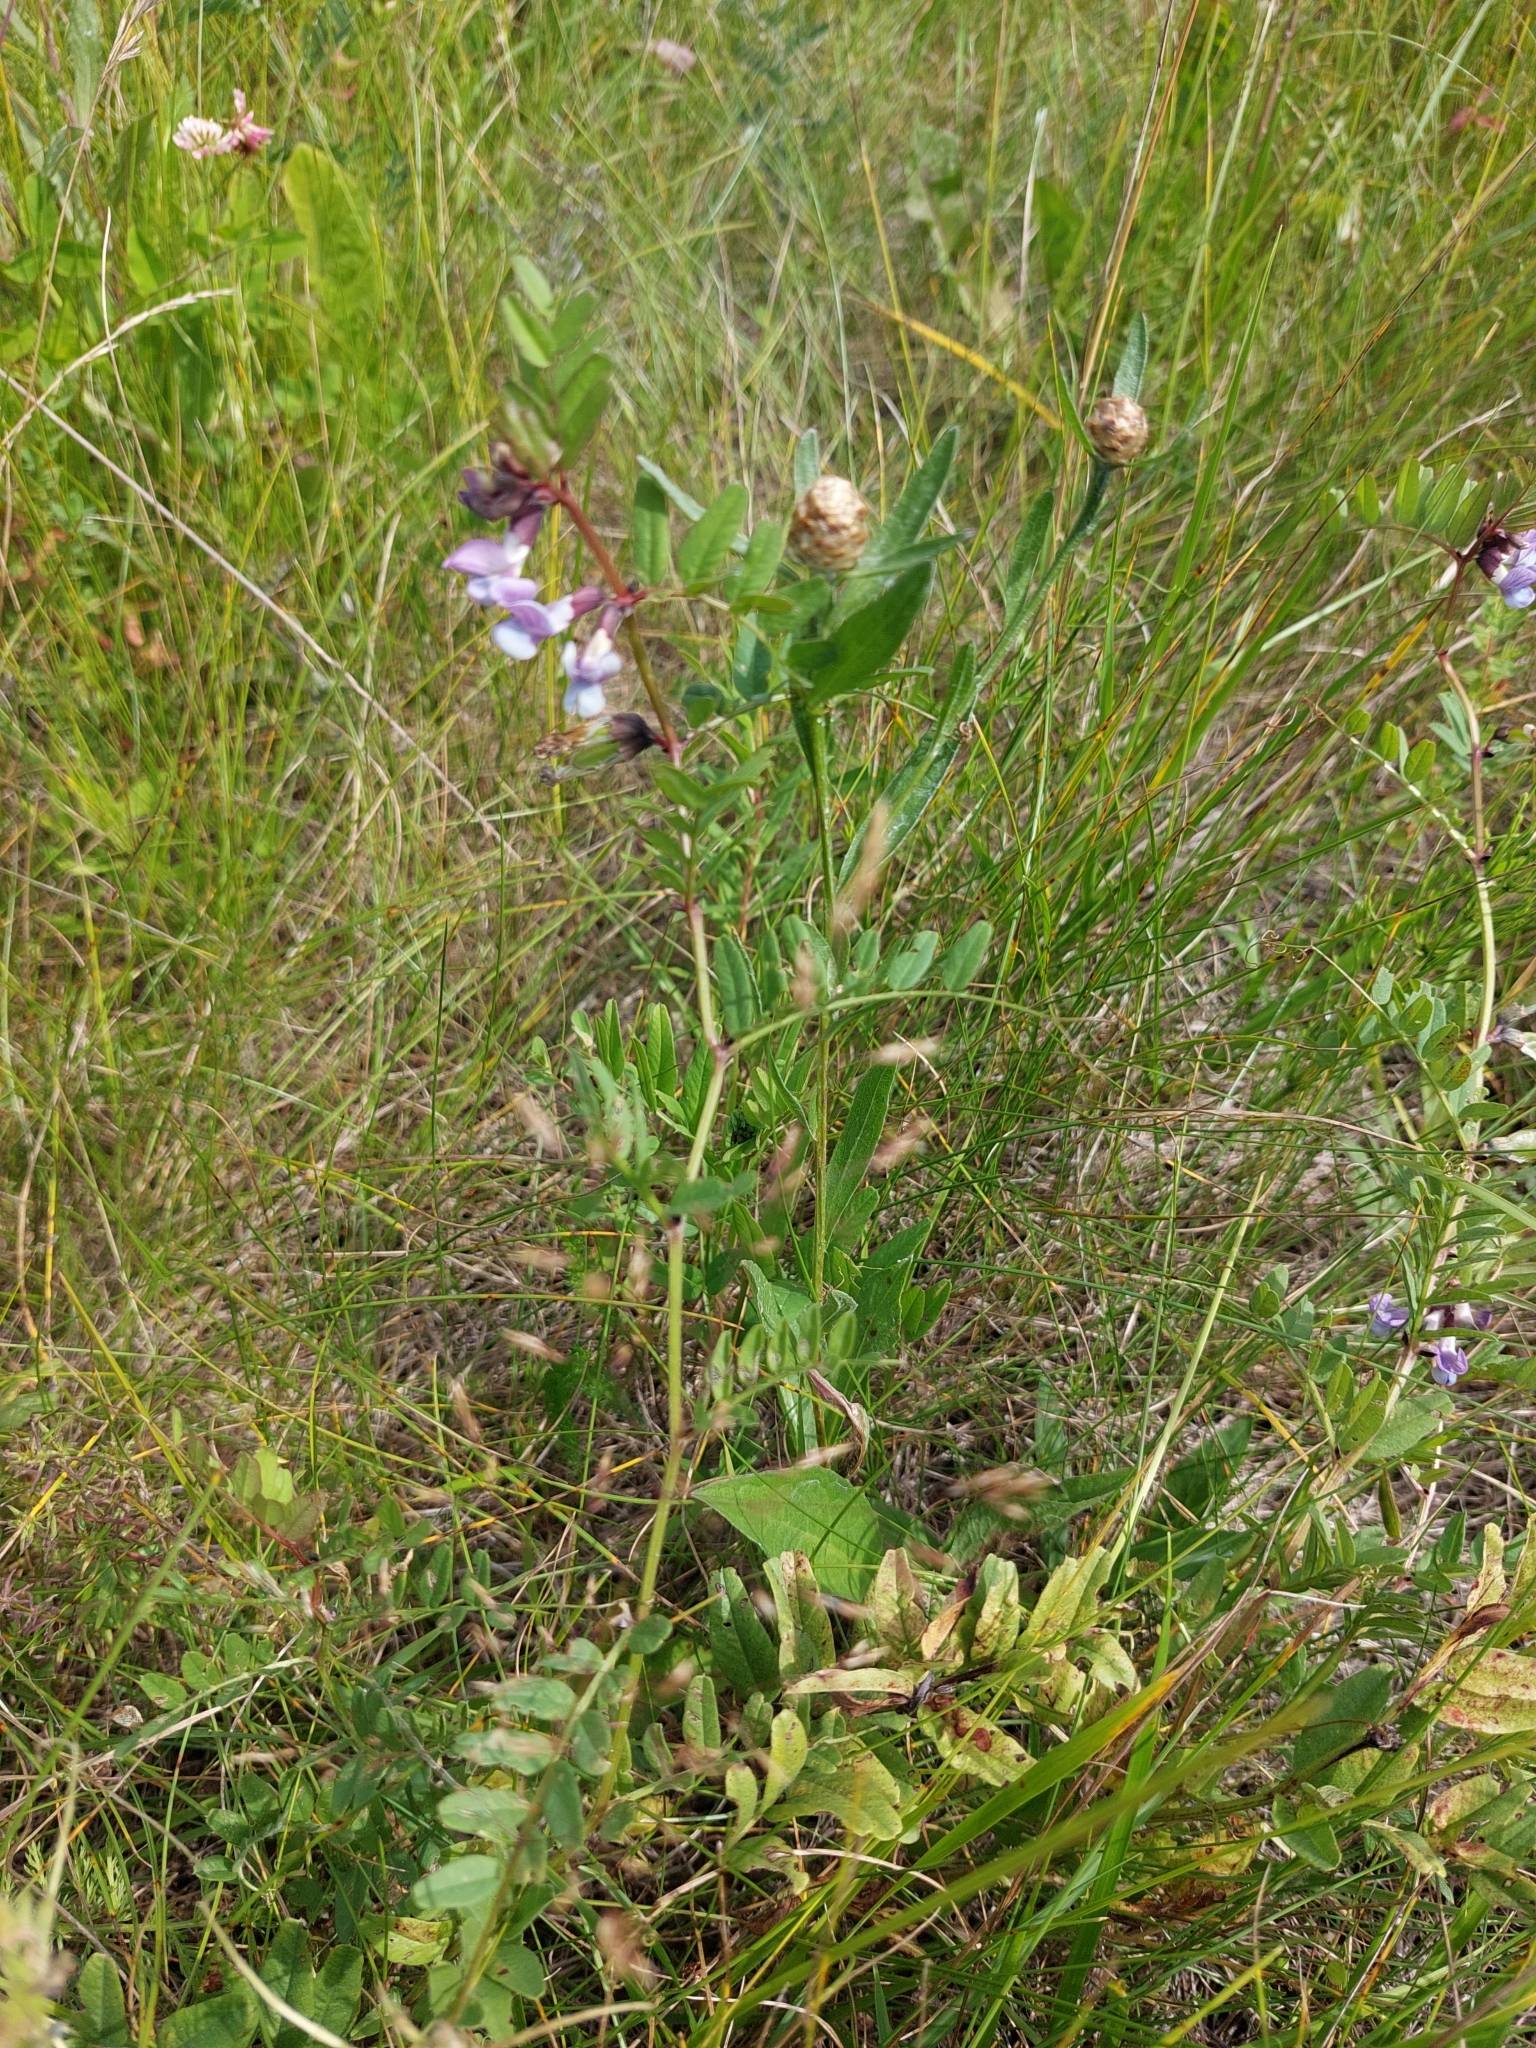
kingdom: Plantae
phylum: Tracheophyta
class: Magnoliopsida
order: Fabales
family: Fabaceae
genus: Vicia
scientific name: Vicia sepium
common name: Bush vetch
